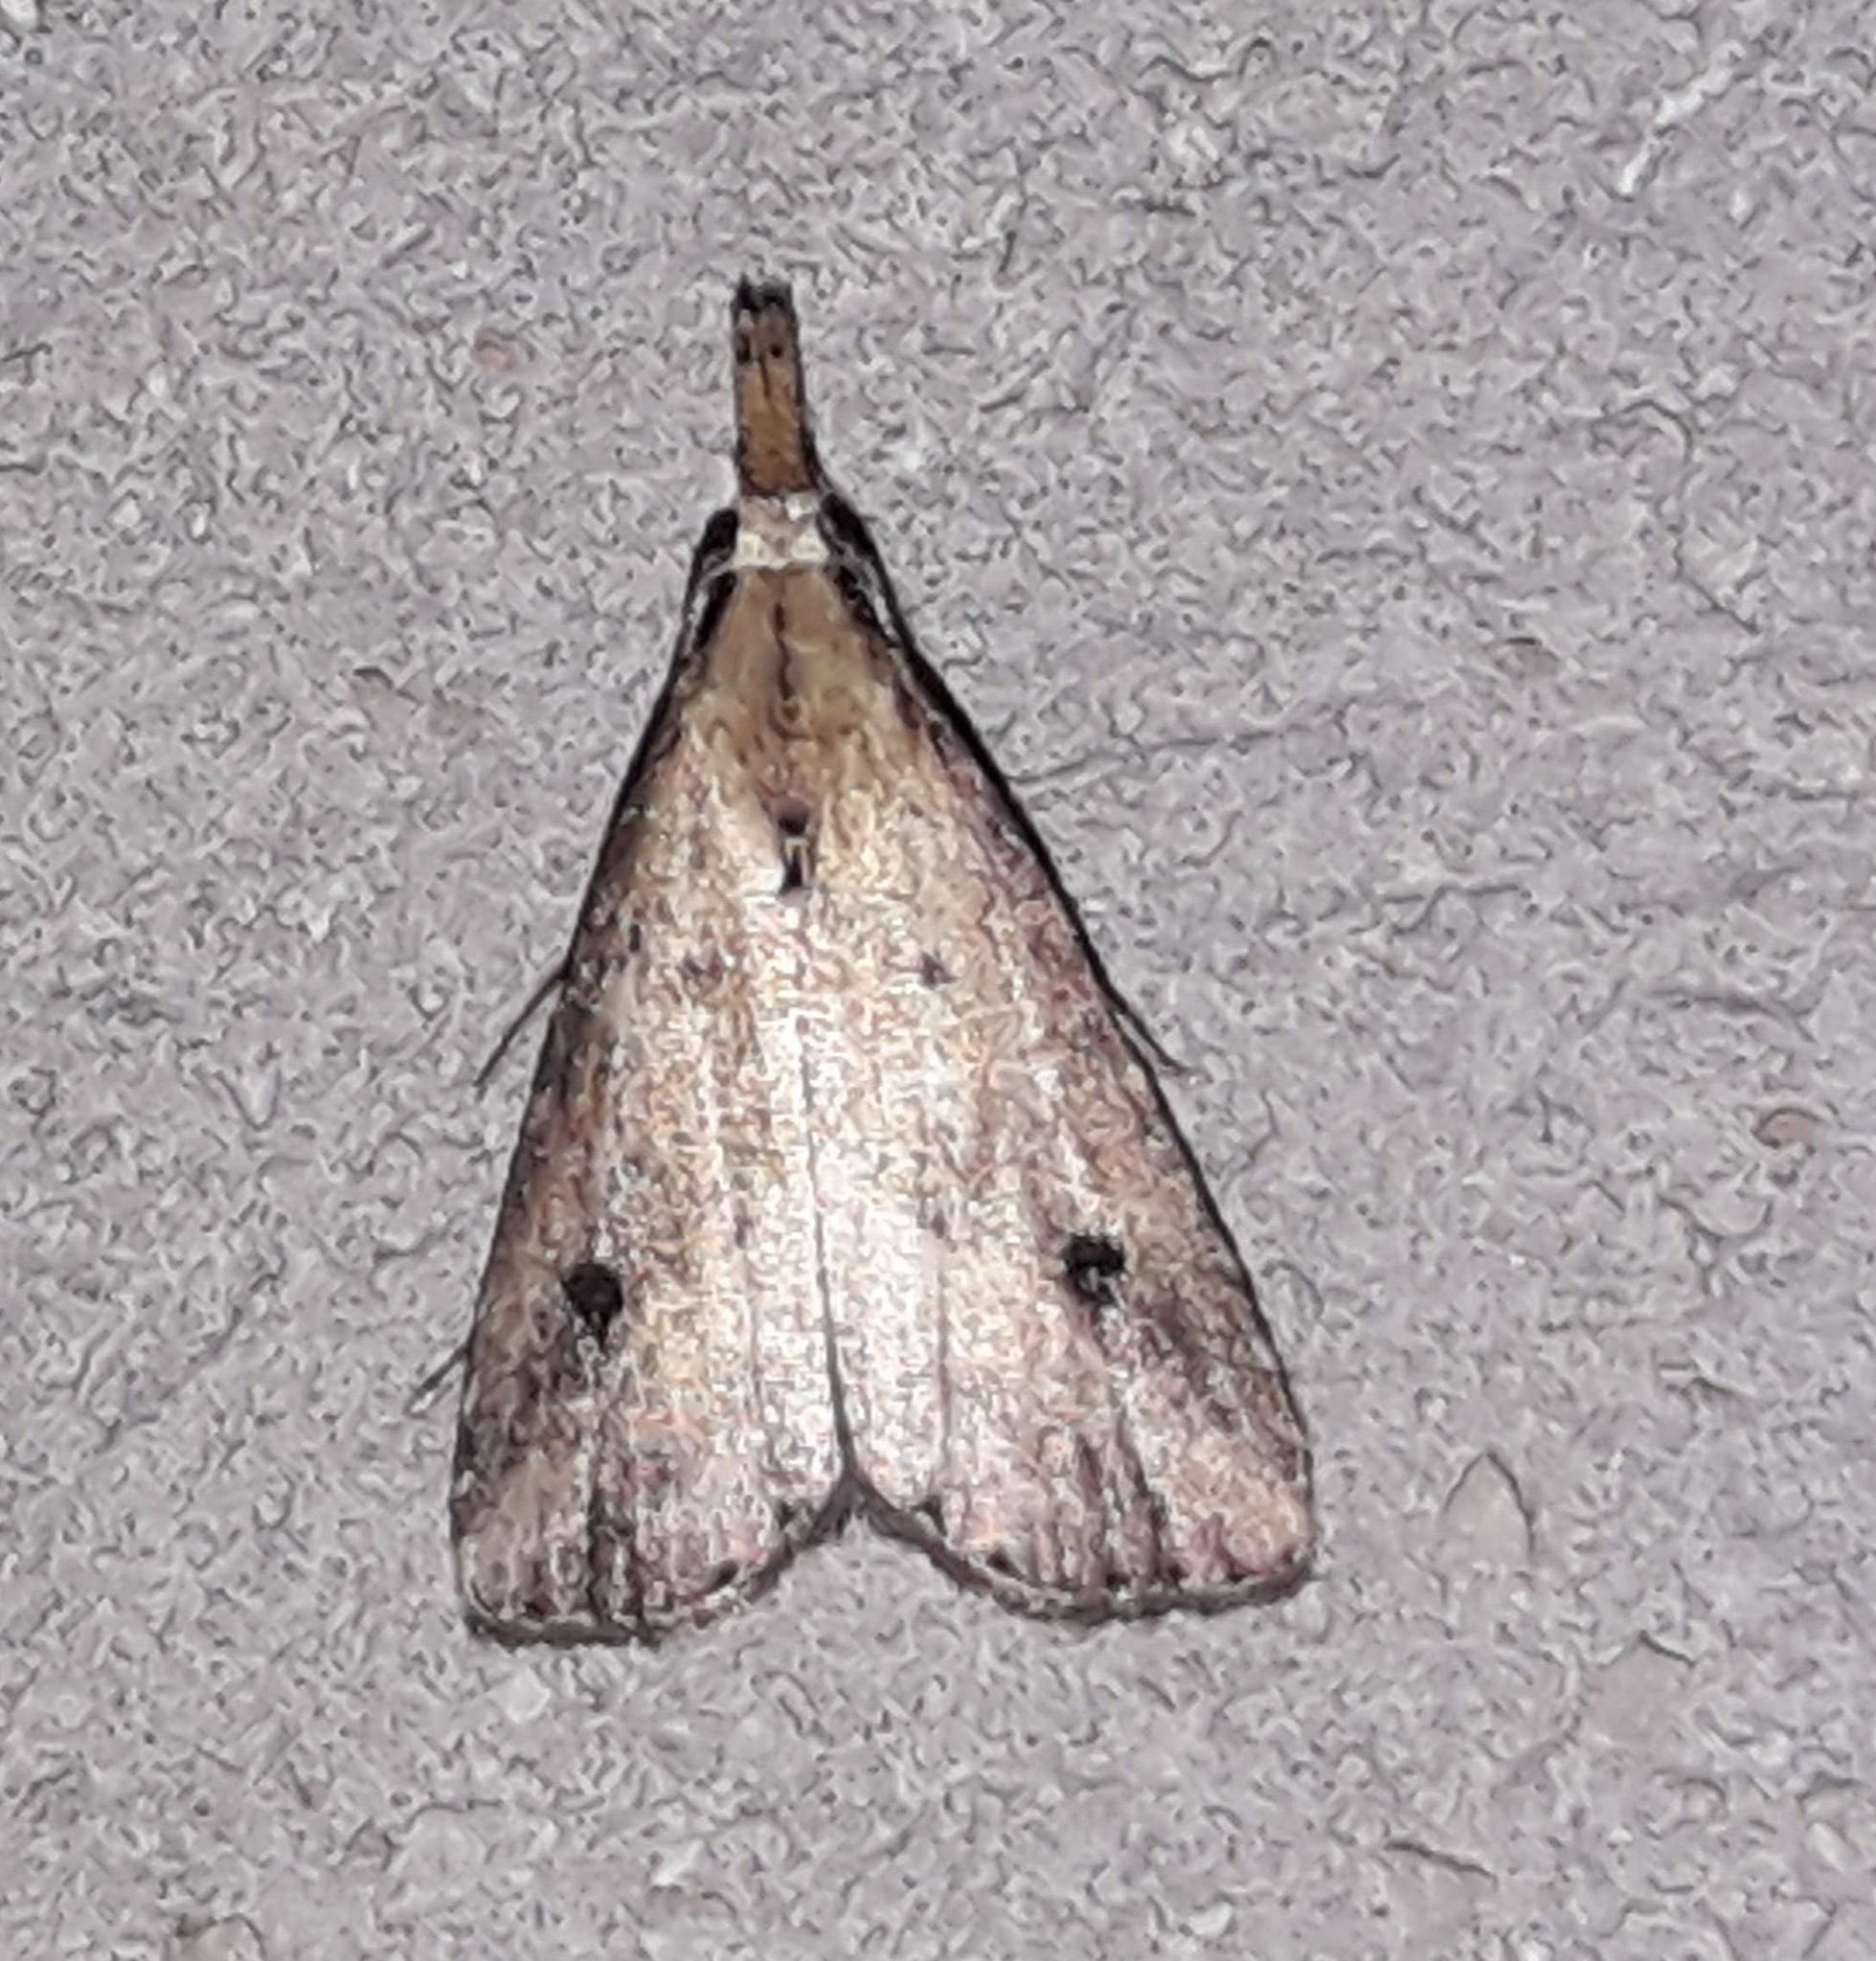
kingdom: Animalia
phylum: Arthropoda
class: Insecta
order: Lepidoptera
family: Erebidae
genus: Schrankia
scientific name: Schrankia
